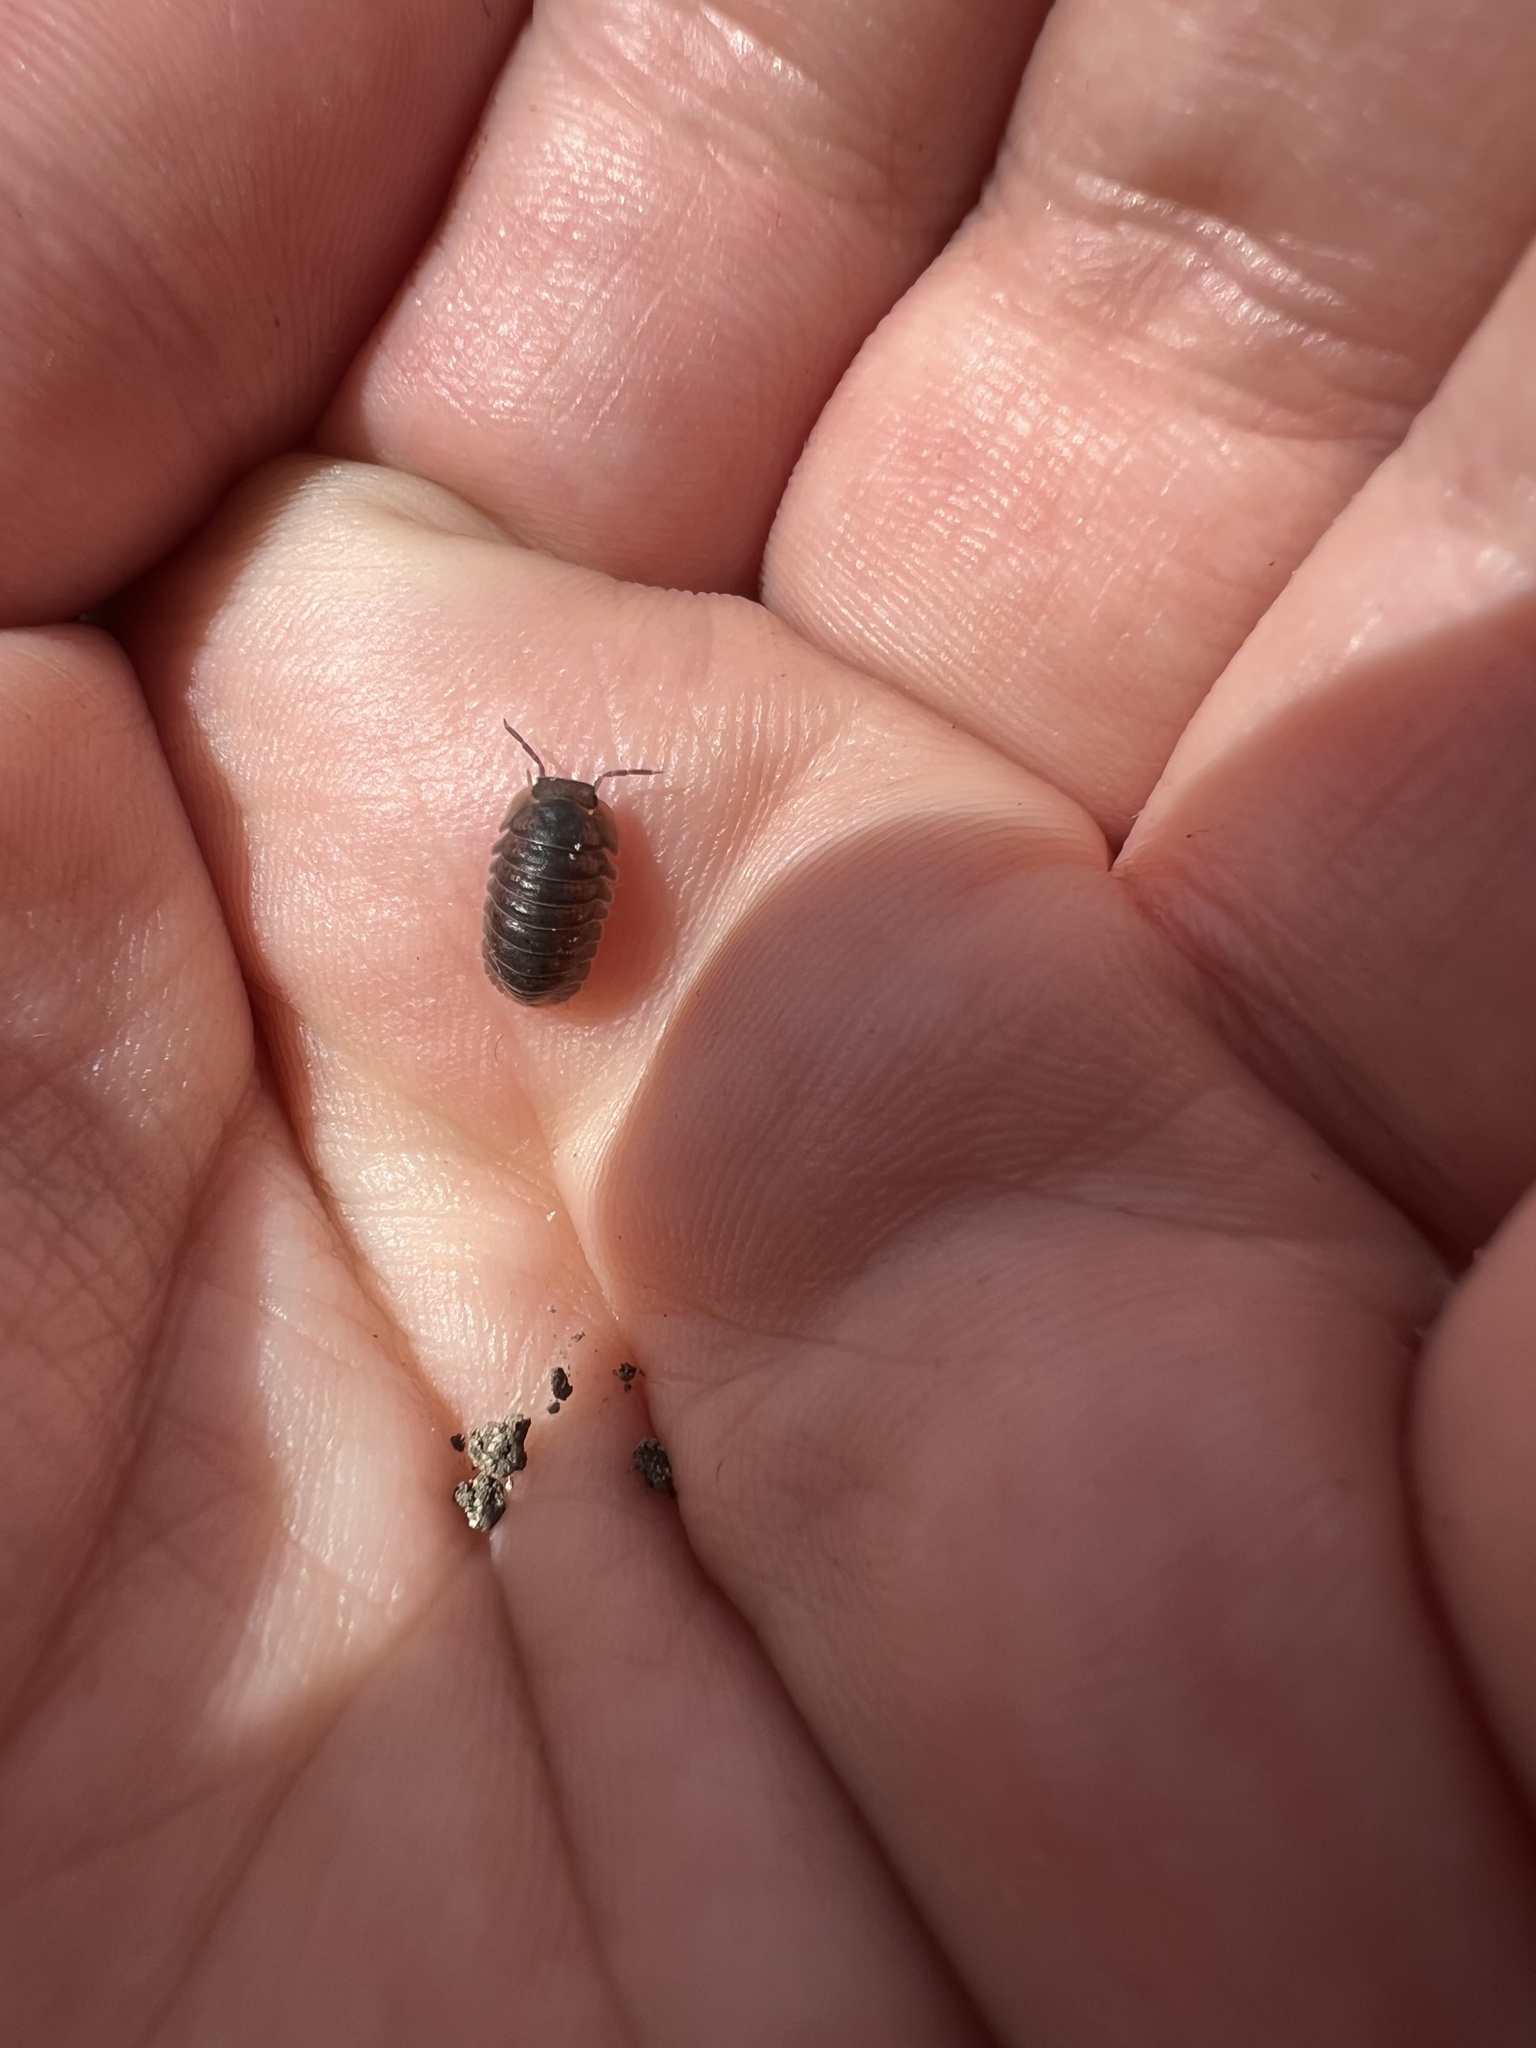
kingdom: Animalia
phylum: Arthropoda
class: Malacostraca
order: Isopoda
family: Armadillidae
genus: Cubaris
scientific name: Cubaris murina
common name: Pillbug
